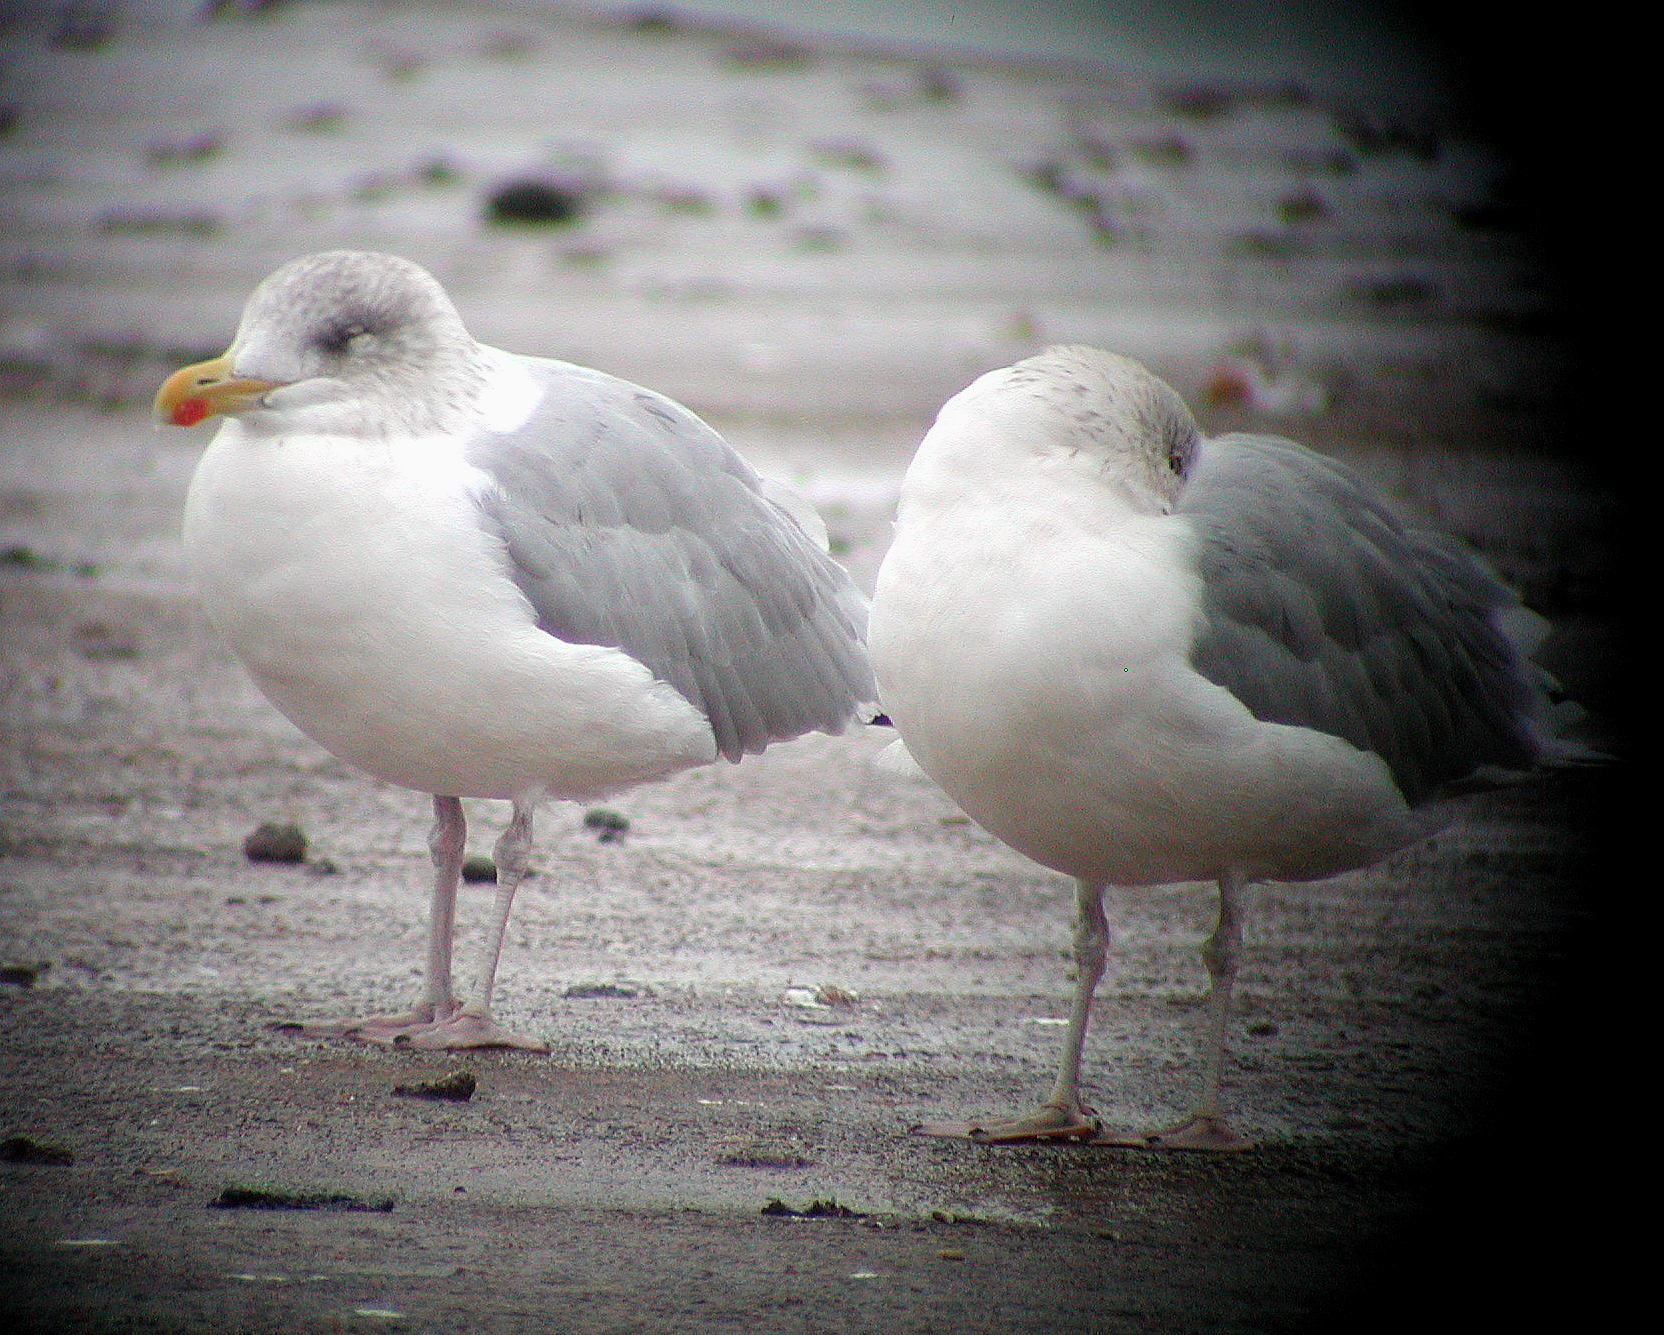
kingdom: Animalia
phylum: Chordata
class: Aves
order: Charadriiformes
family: Laridae
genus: Larus
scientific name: Larus argentatus
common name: Herring gull
